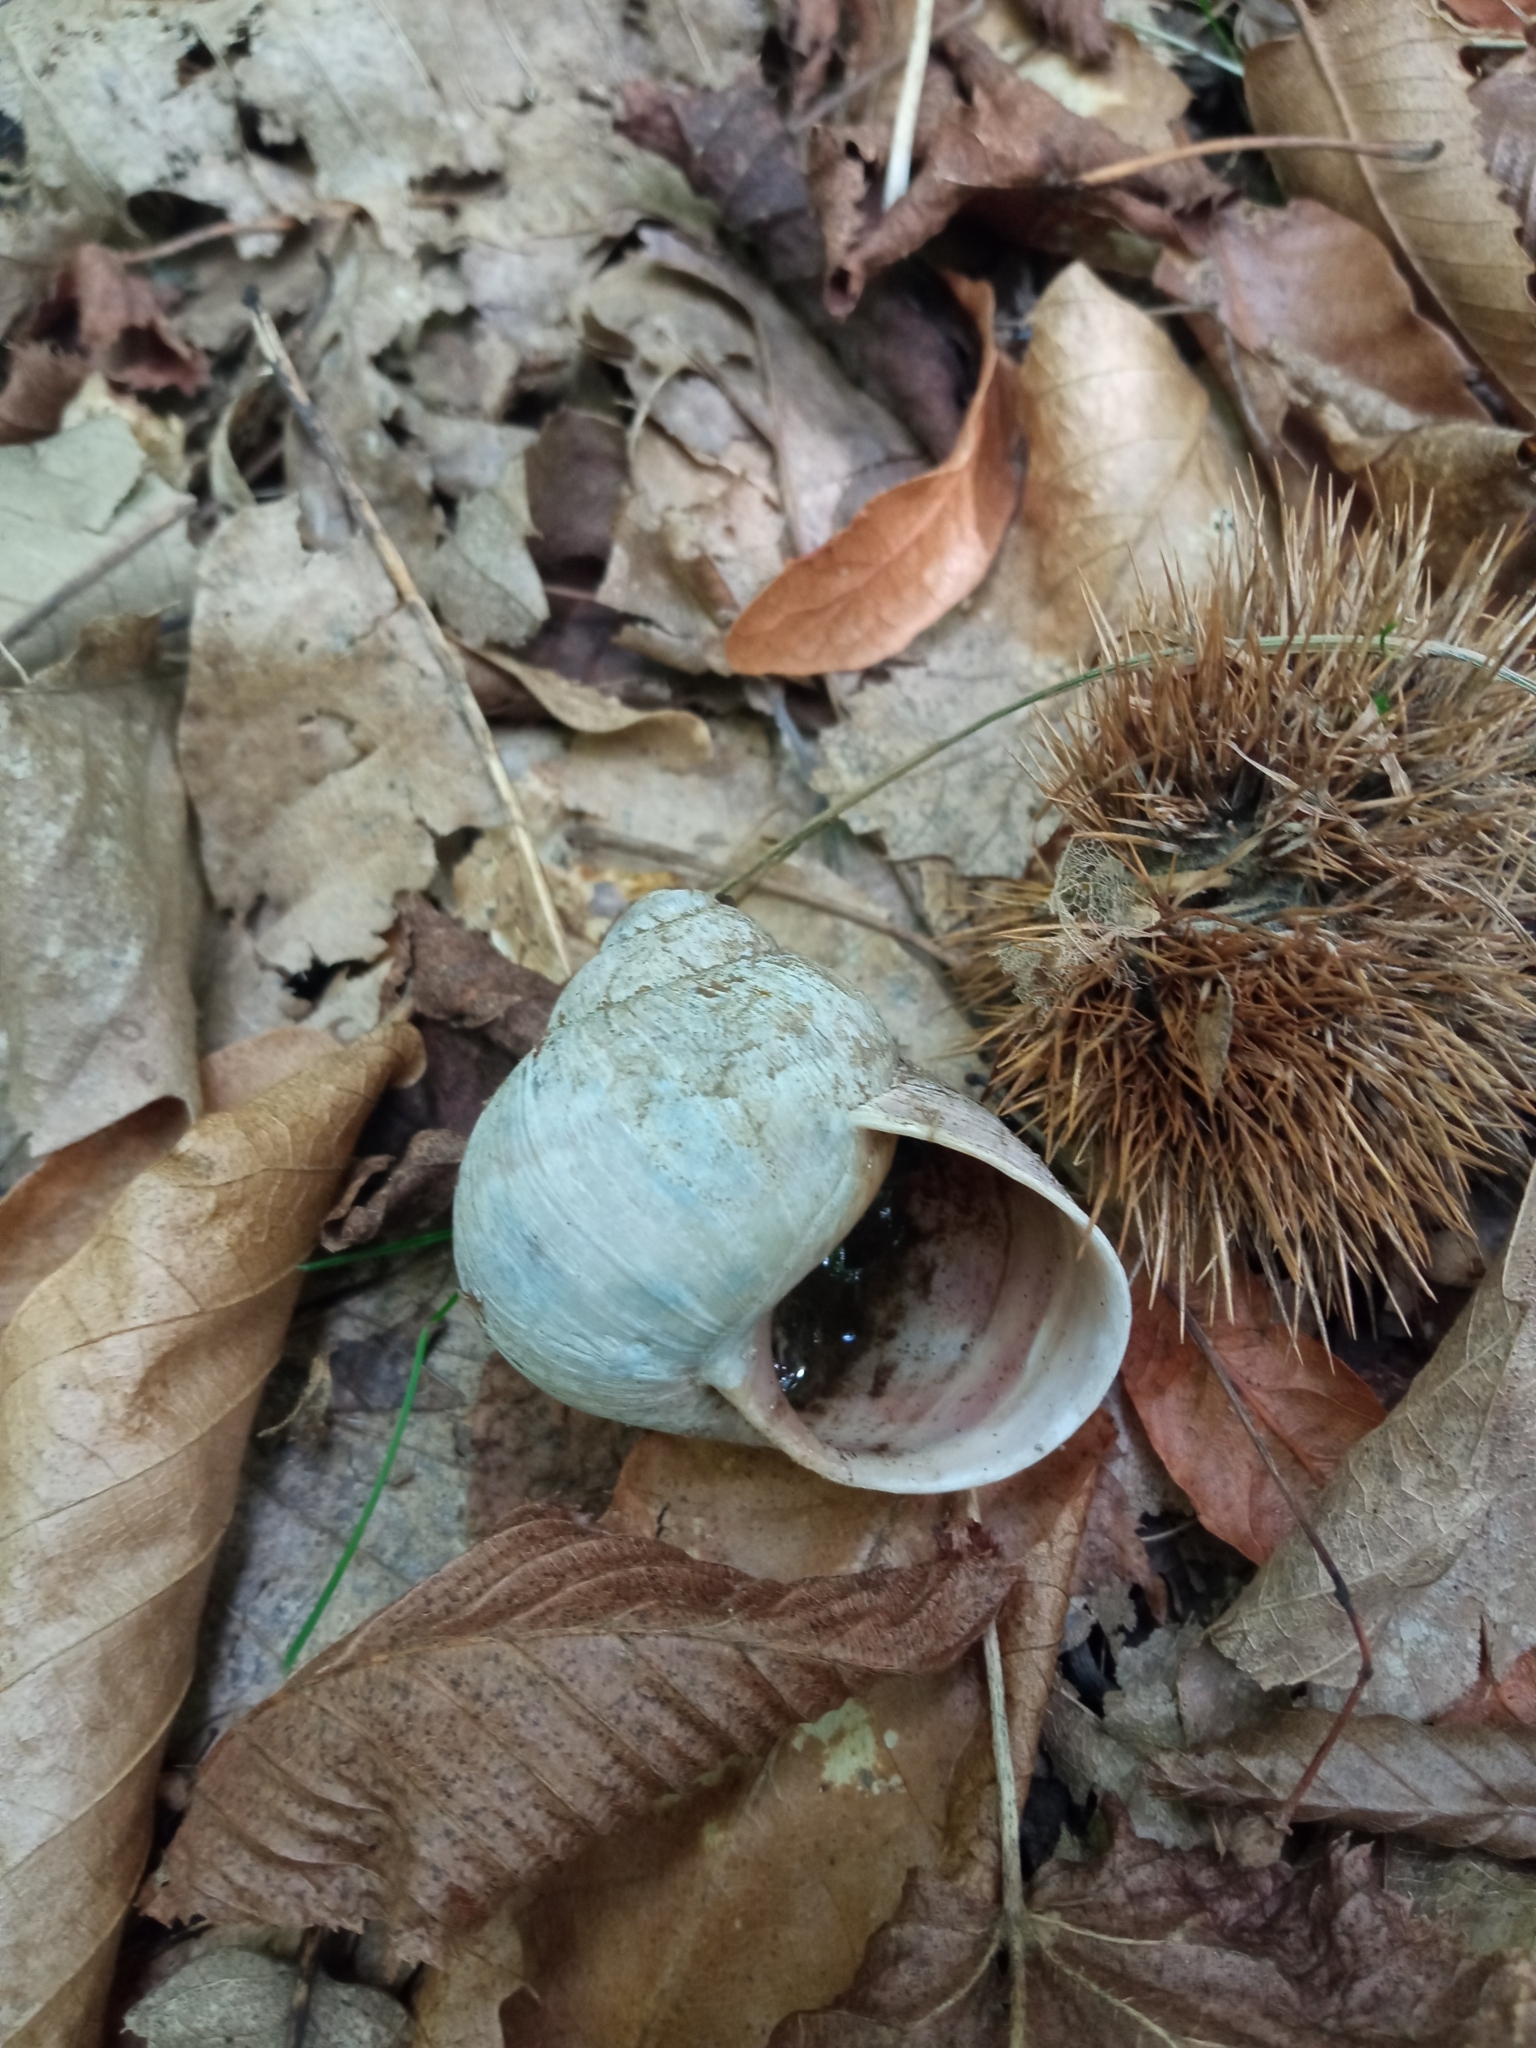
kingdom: Animalia
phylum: Mollusca
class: Gastropoda
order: Stylommatophora
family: Helicidae
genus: Helix
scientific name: Helix pomatia
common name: Roman snail
